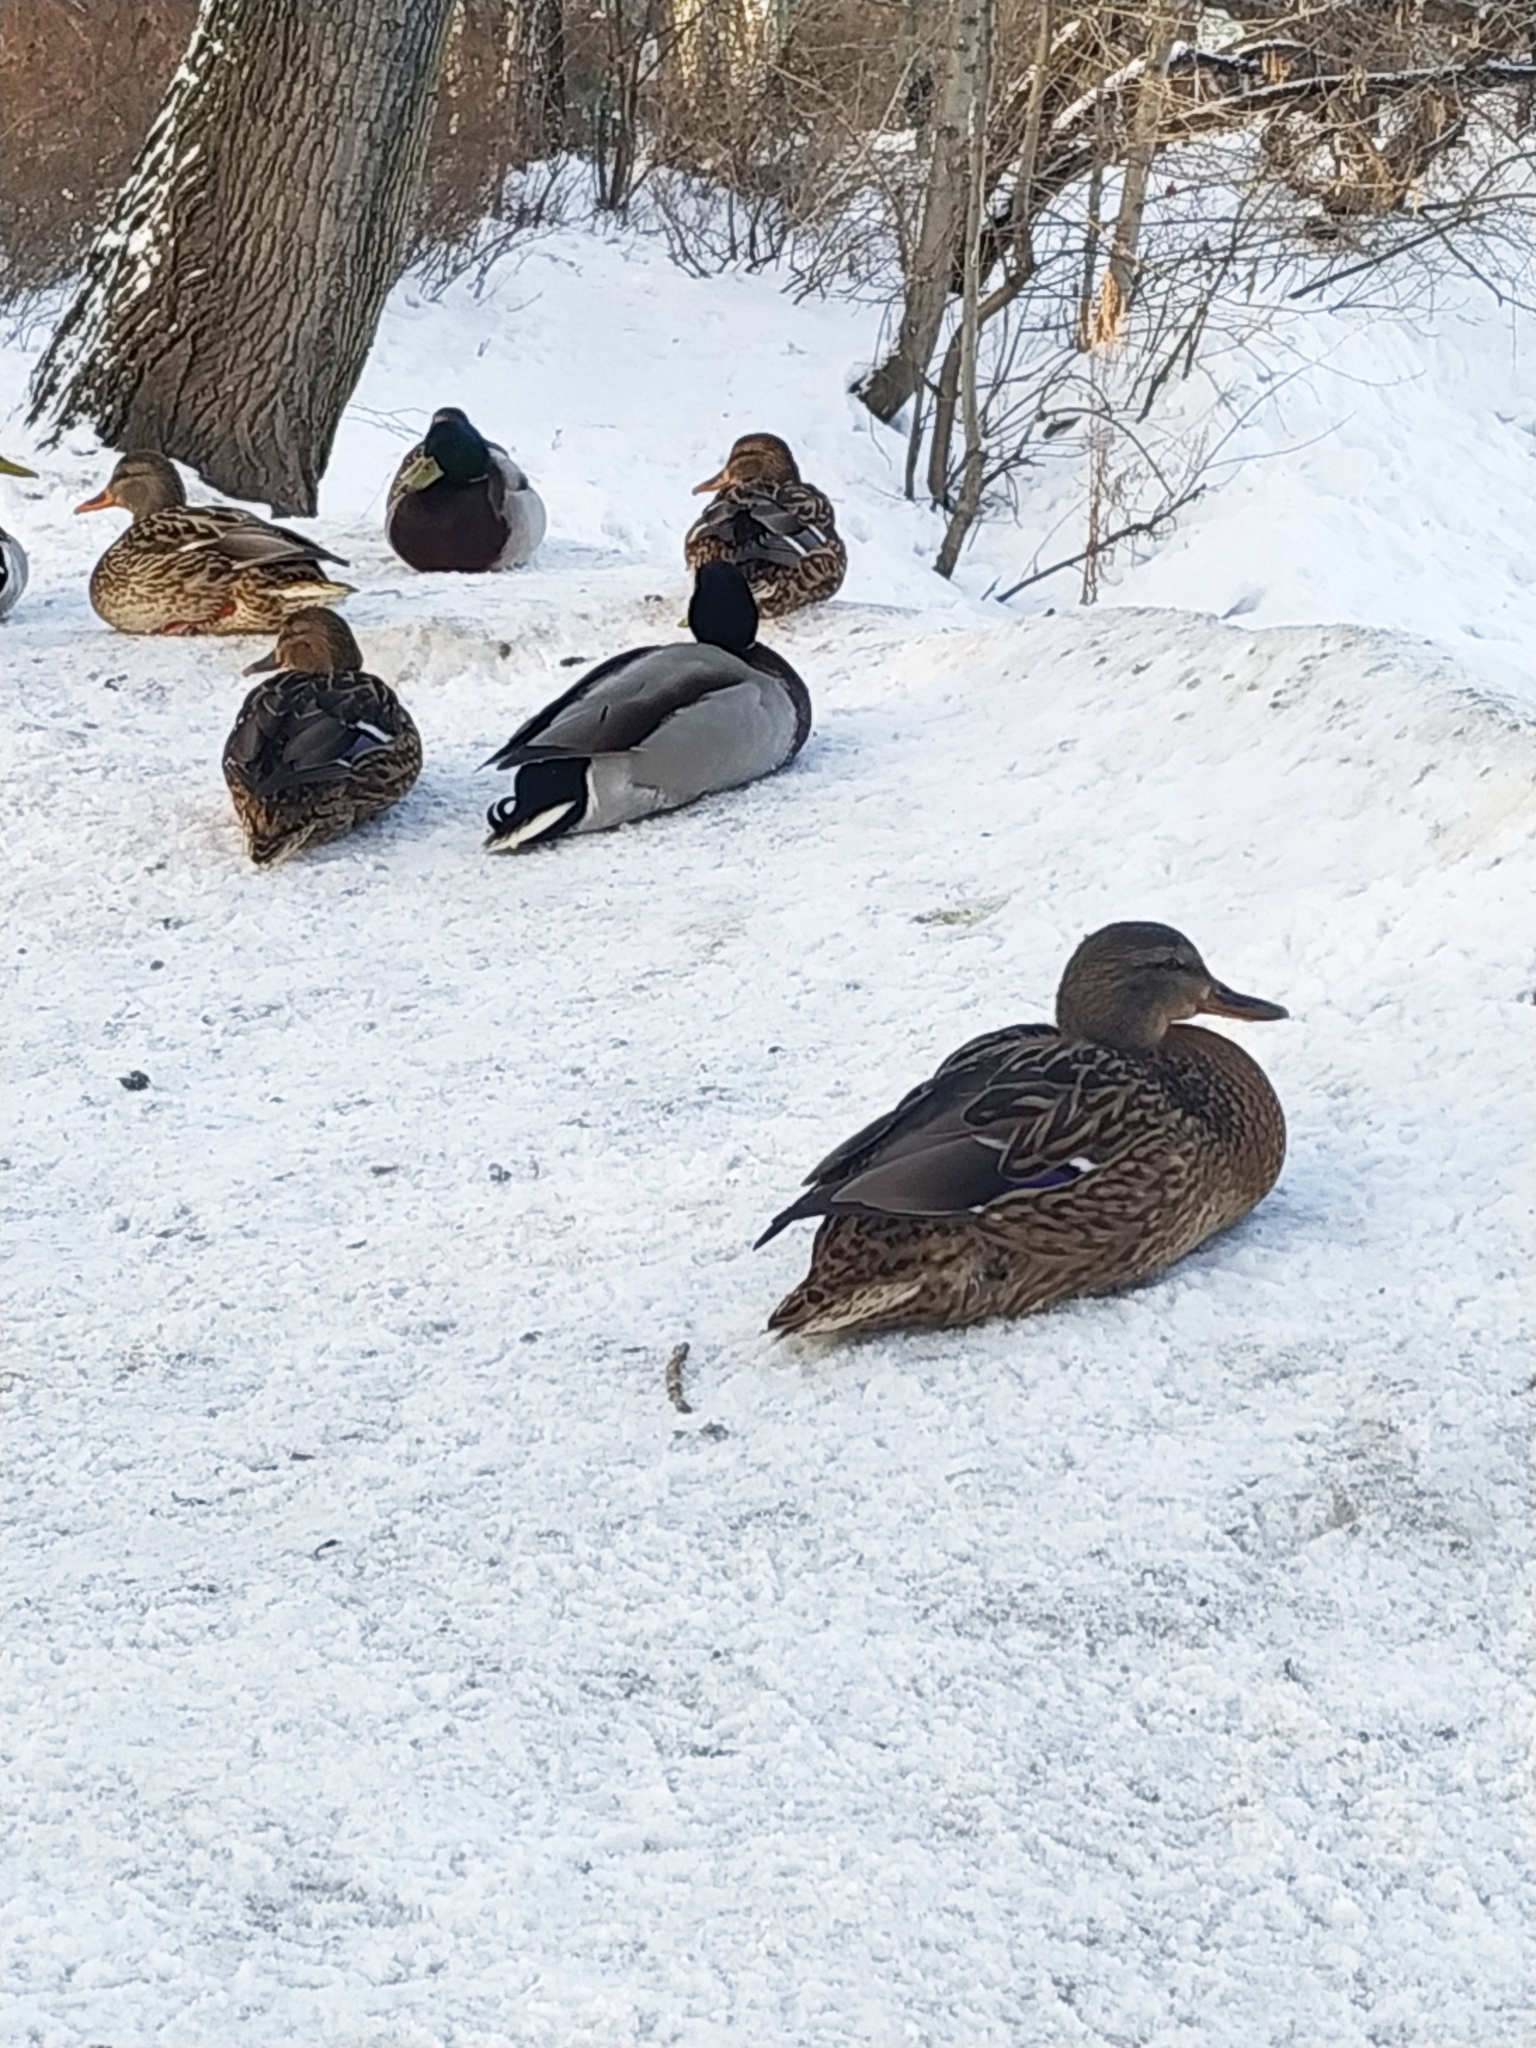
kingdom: Animalia
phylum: Chordata
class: Aves
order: Anseriformes
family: Anatidae
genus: Anas
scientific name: Anas platyrhynchos
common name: Mallard
